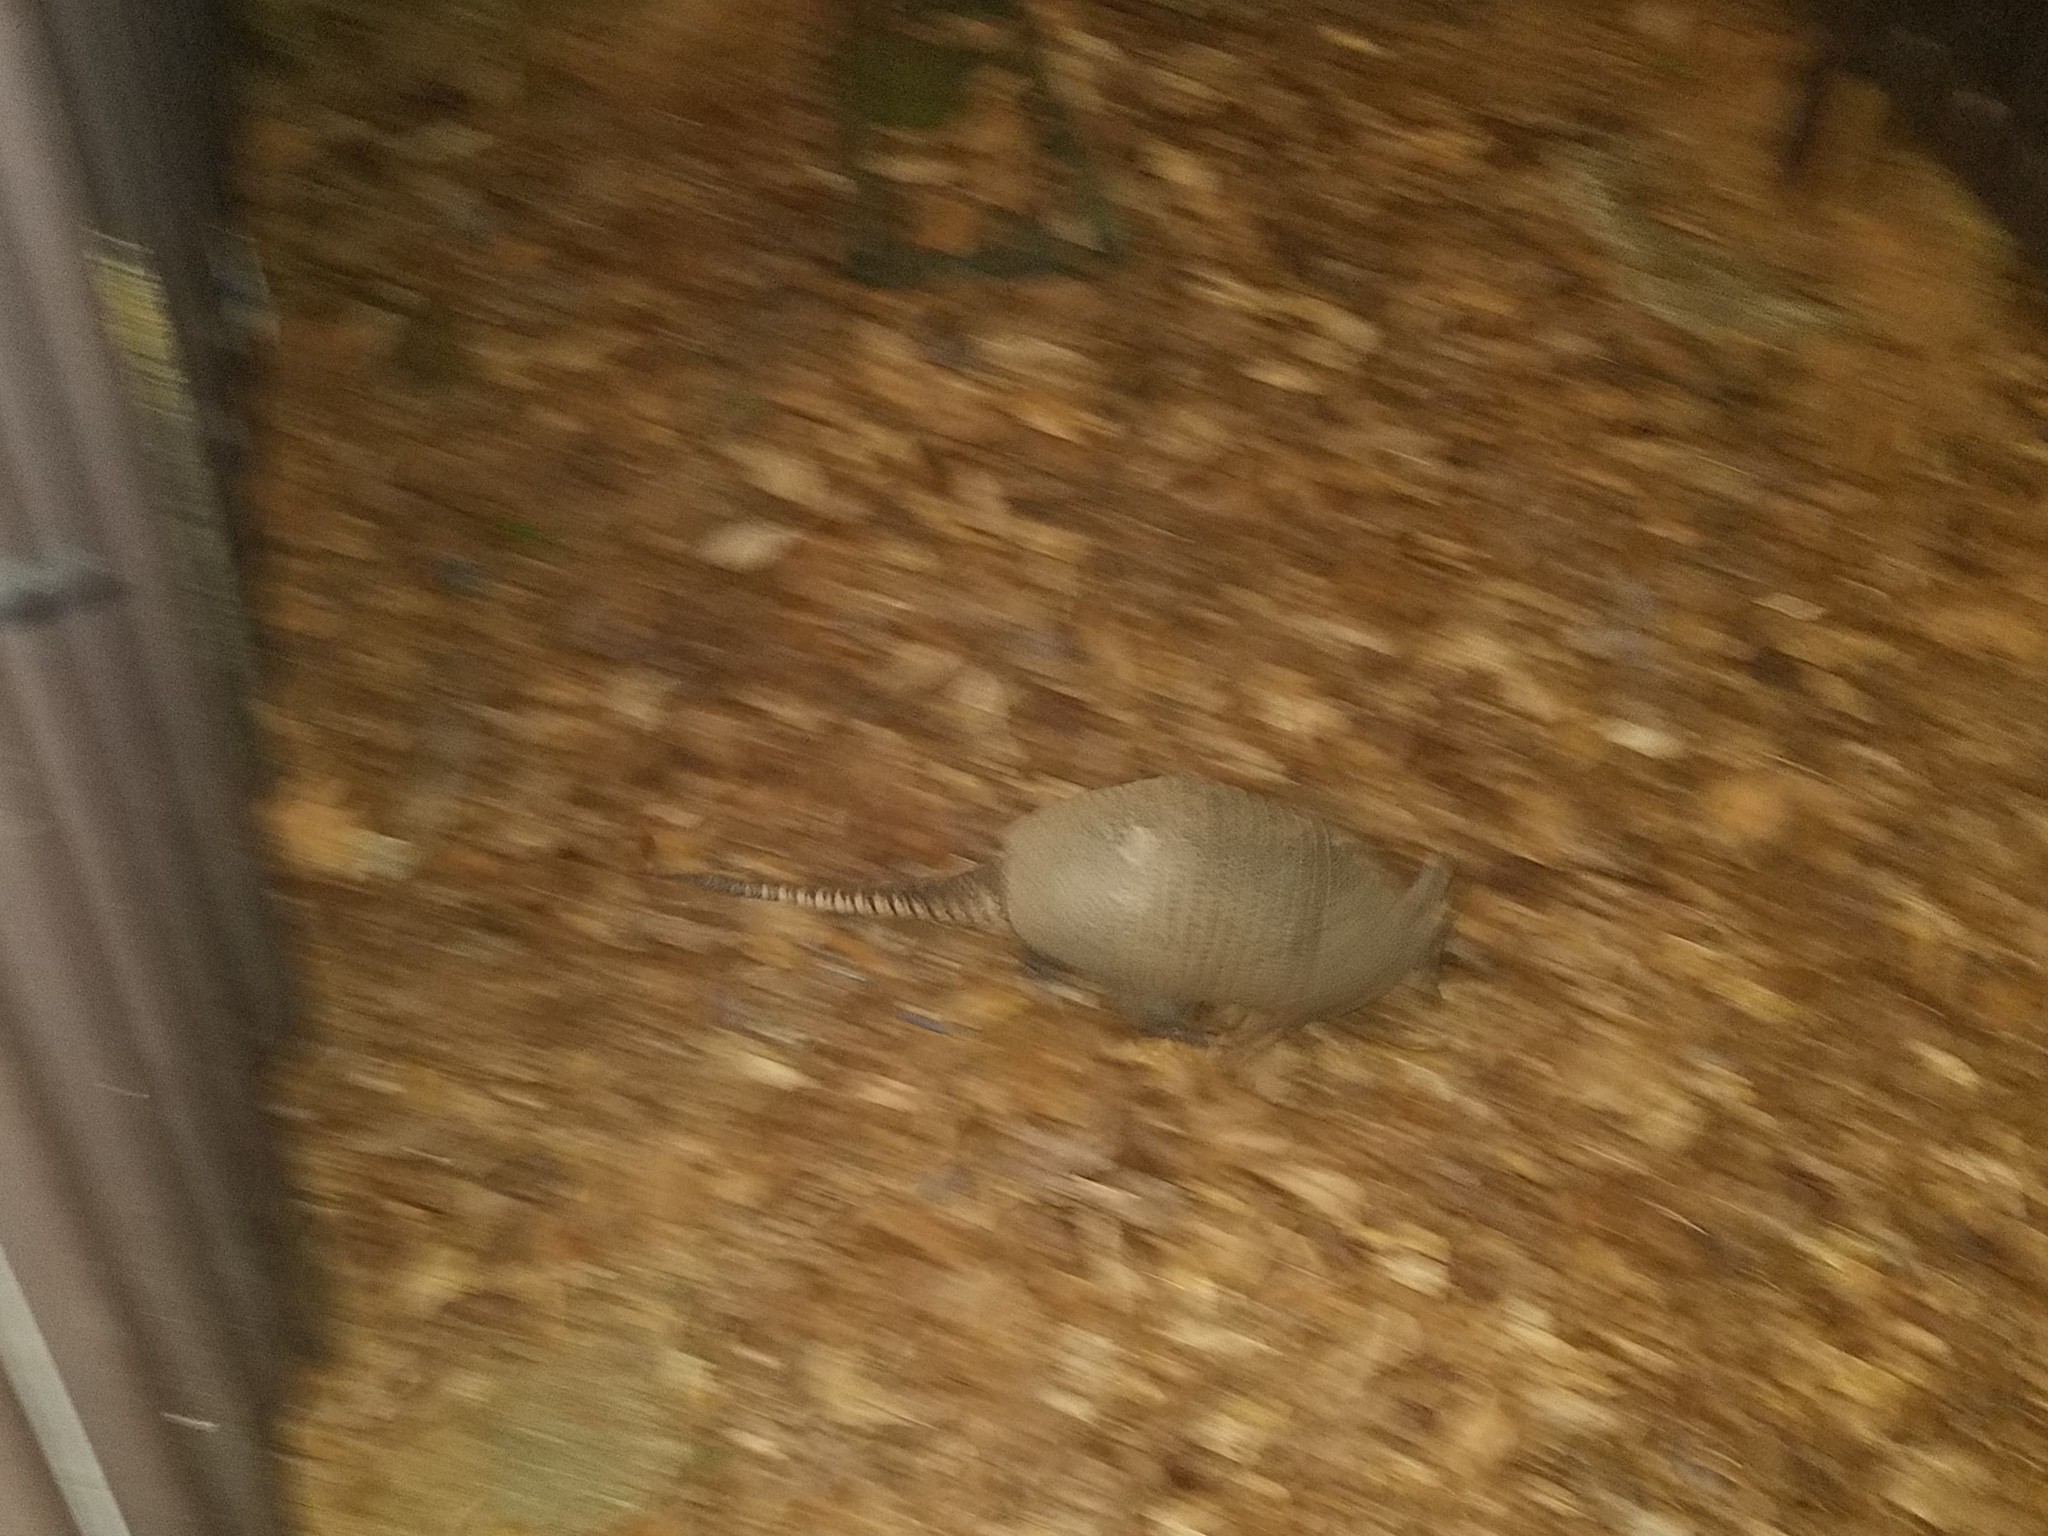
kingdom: Animalia
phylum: Chordata
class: Mammalia
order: Cingulata
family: Dasypodidae
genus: Dasypus
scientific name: Dasypus novemcinctus
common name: Nine-banded armadillo
